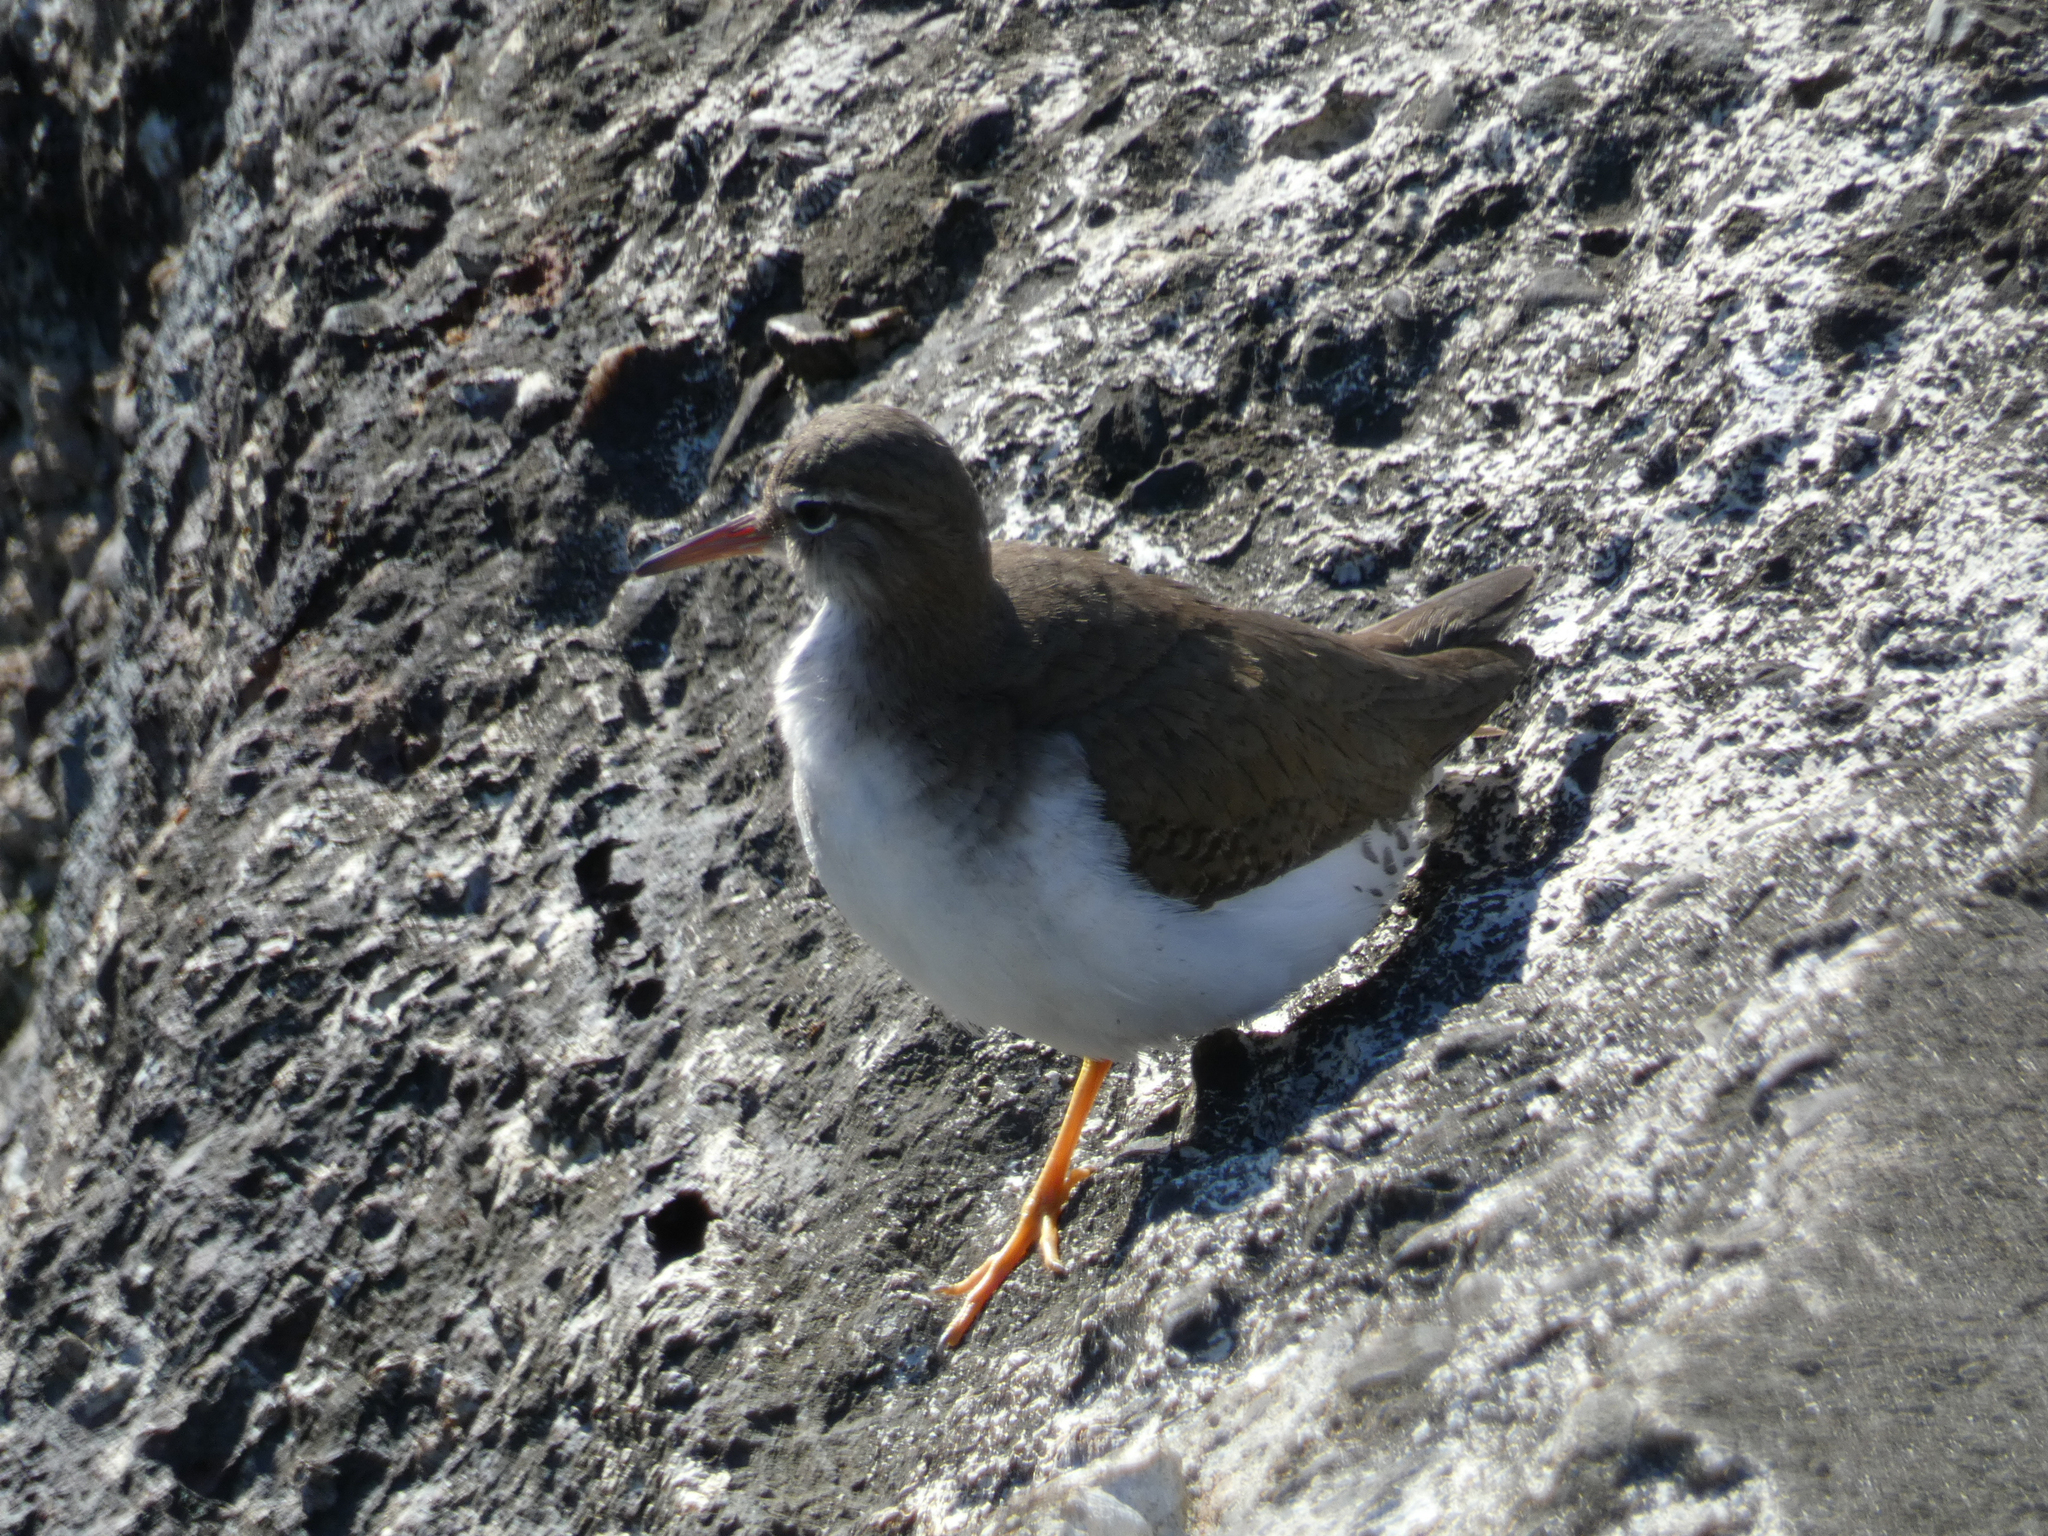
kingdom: Animalia
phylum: Chordata
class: Aves
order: Charadriiformes
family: Scolopacidae
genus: Actitis
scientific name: Actitis macularius
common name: Spotted sandpiper
